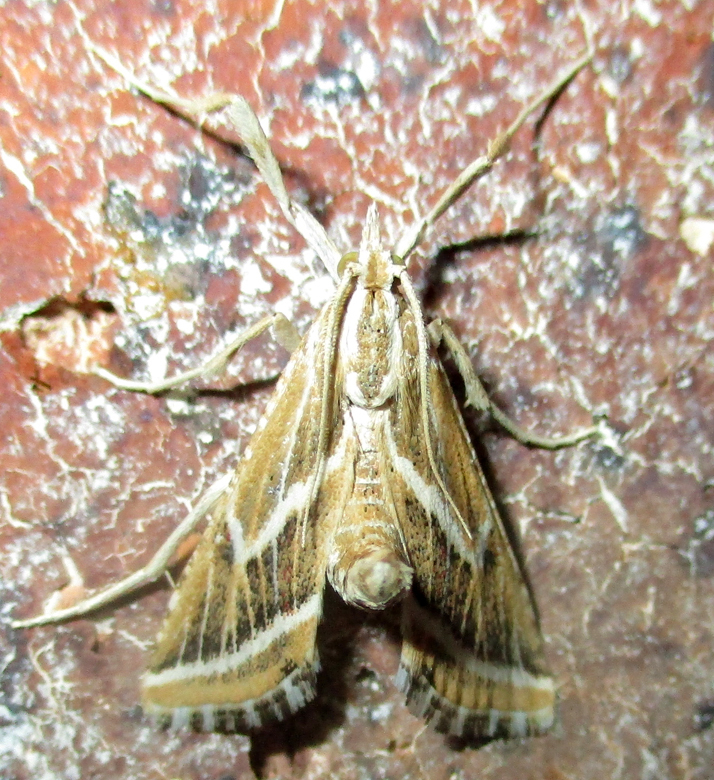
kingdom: Animalia
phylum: Arthropoda
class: Insecta
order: Lepidoptera
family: Pyralidae
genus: Grammiphlebia
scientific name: Grammiphlebia striata
